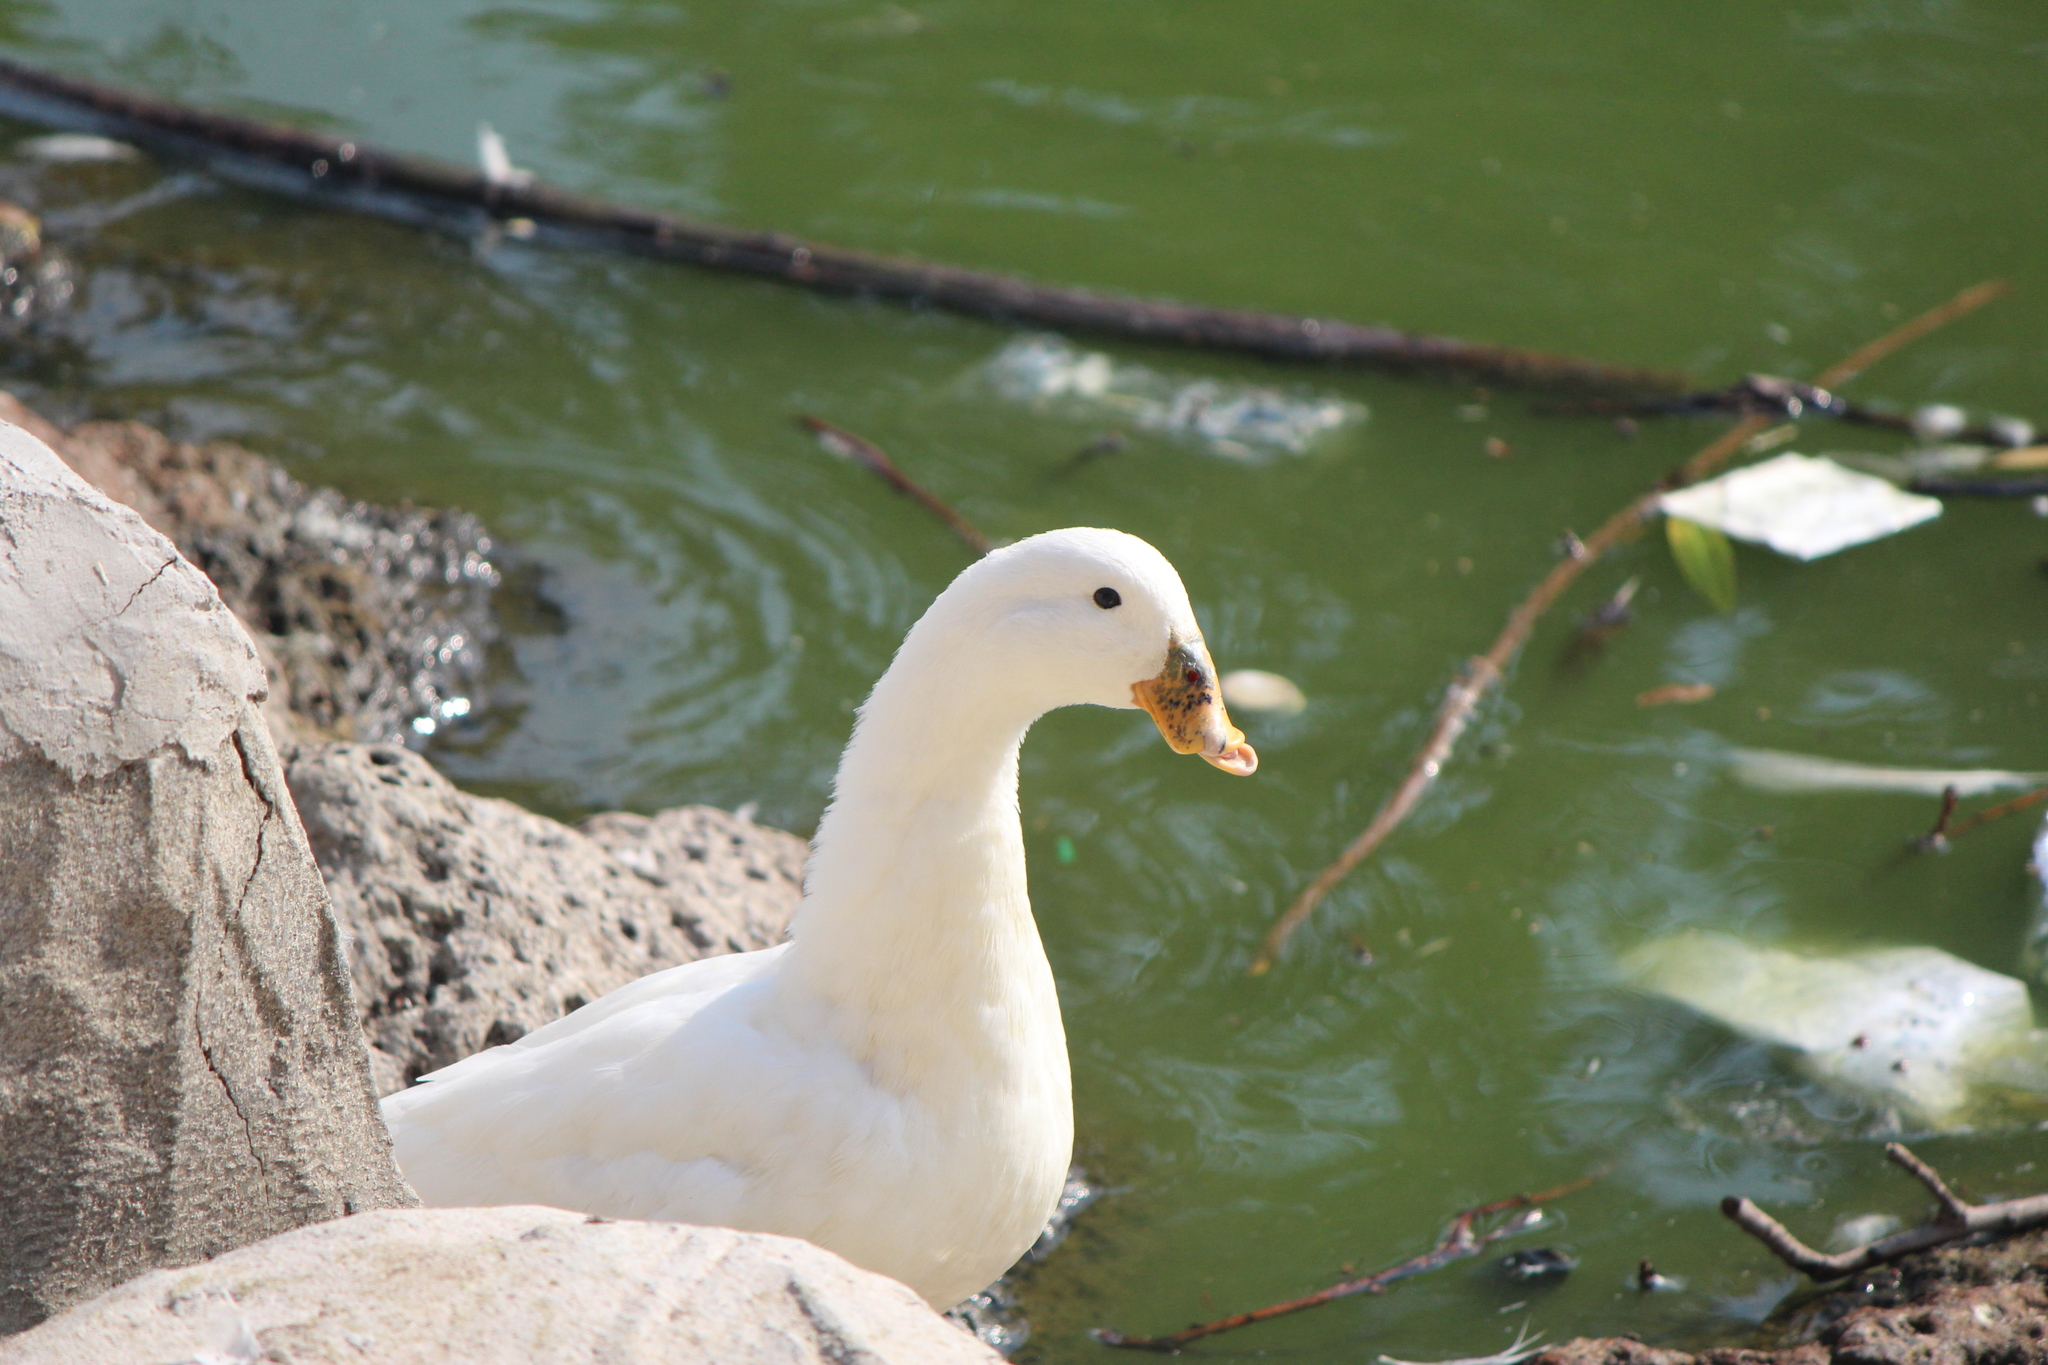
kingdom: Animalia
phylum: Chordata
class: Aves
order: Anseriformes
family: Anatidae
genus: Anas
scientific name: Anas platyrhynchos
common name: Mallard
